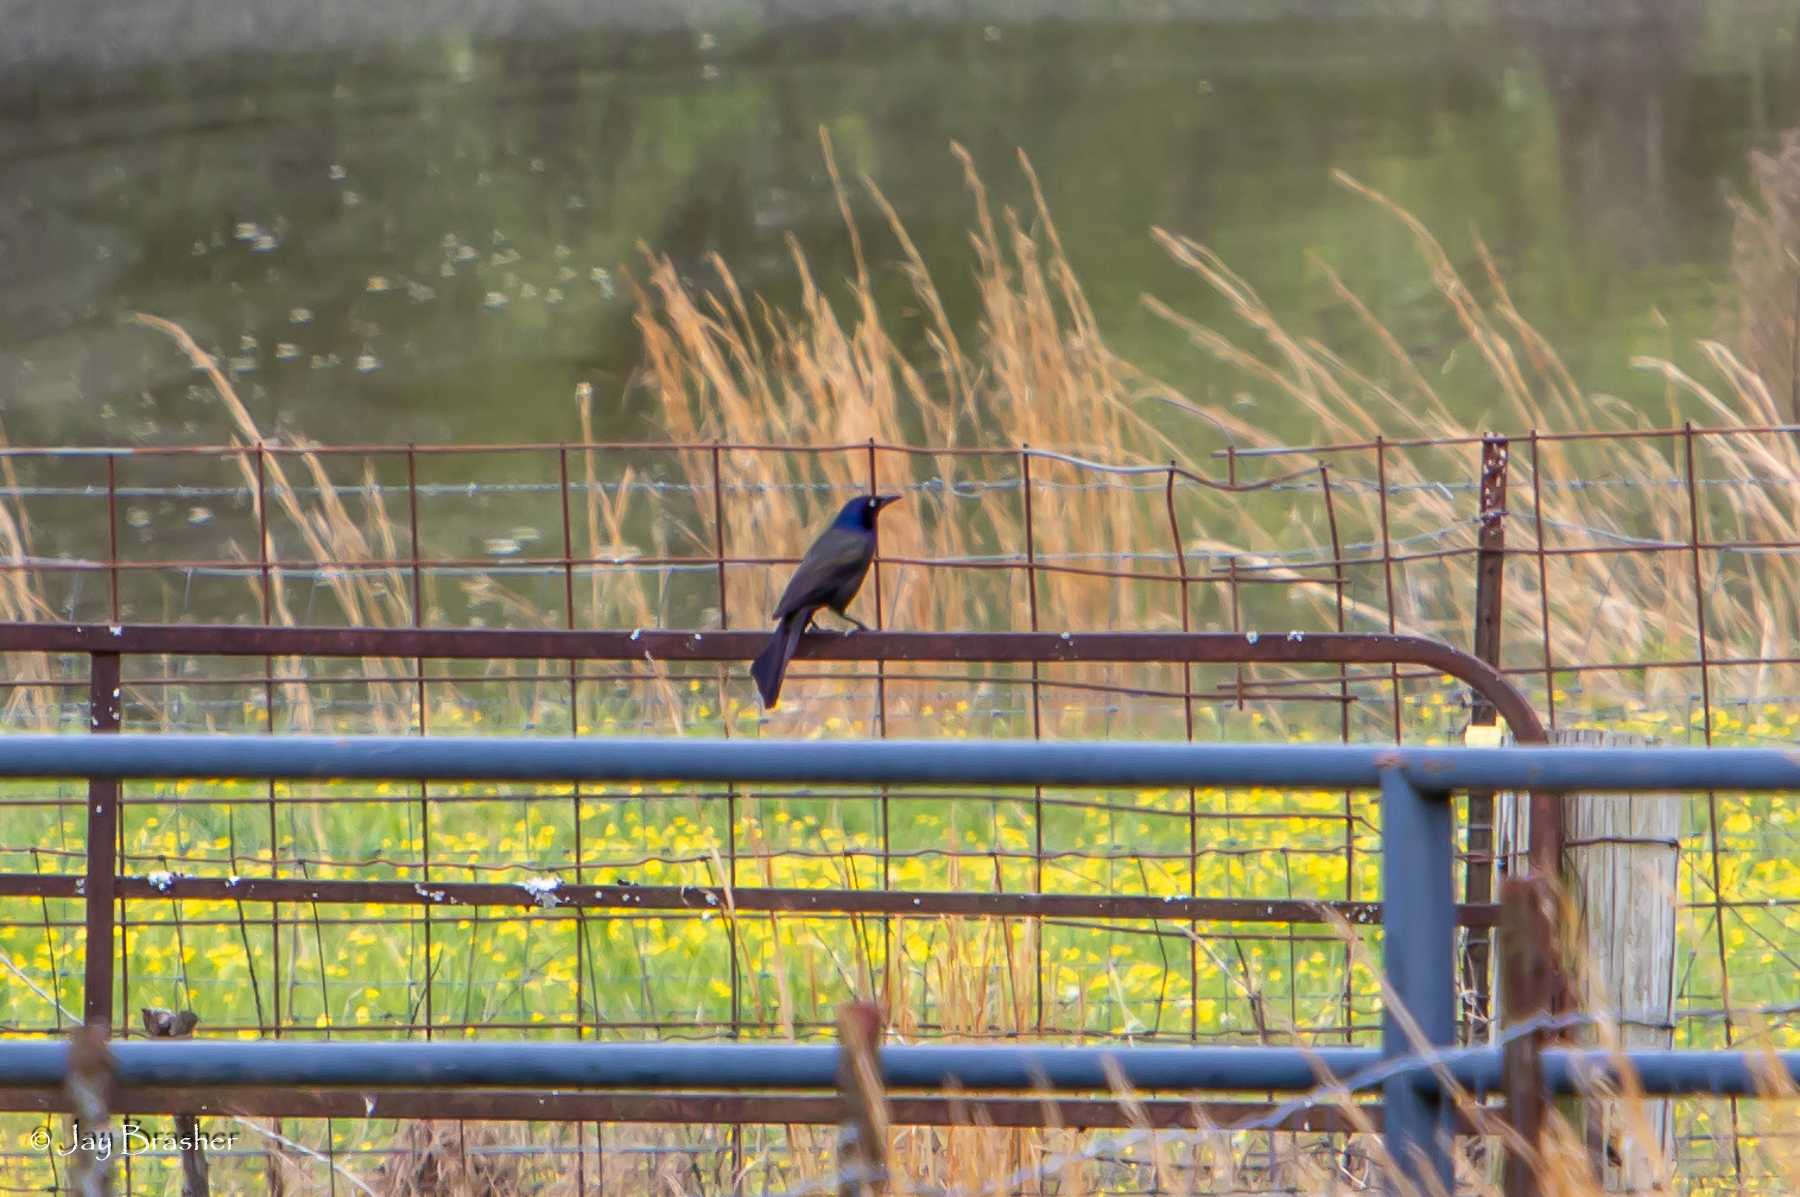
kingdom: Animalia
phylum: Chordata
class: Aves
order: Passeriformes
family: Icteridae
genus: Quiscalus
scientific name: Quiscalus quiscula
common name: Common grackle
